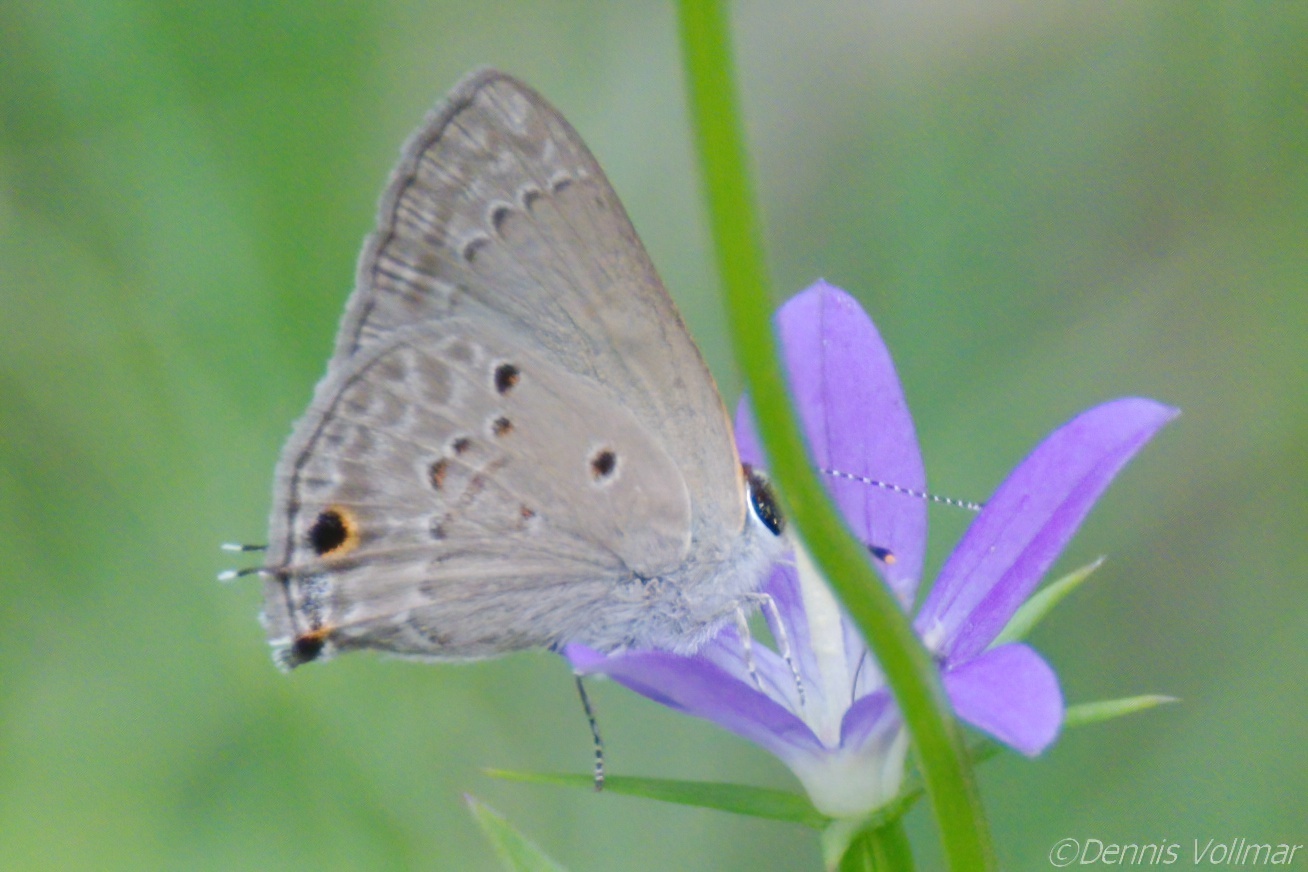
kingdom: Animalia
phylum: Arthropoda
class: Insecta
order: Lepidoptera
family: Lycaenidae
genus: Callicista
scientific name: Callicista columella
